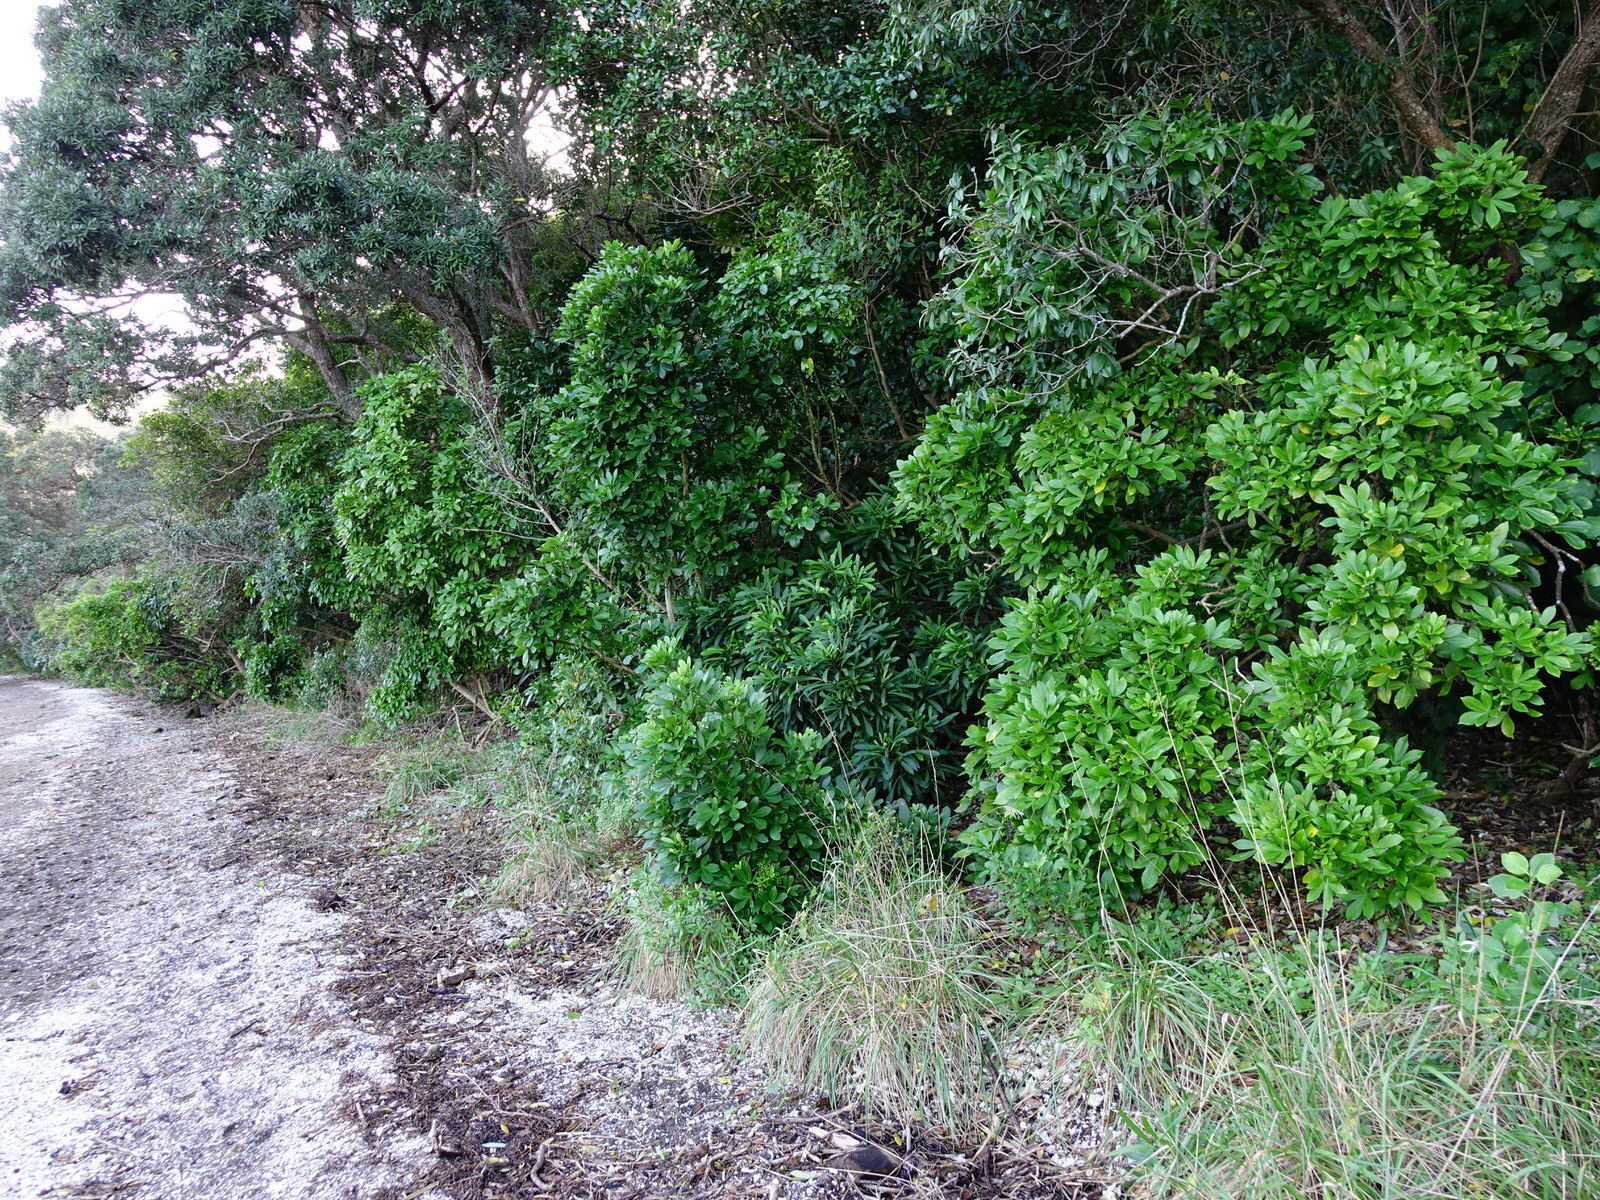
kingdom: Plantae
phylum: Tracheophyta
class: Magnoliopsida
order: Apiales
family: Araliaceae
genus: Pseudopanax
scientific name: Pseudopanax
